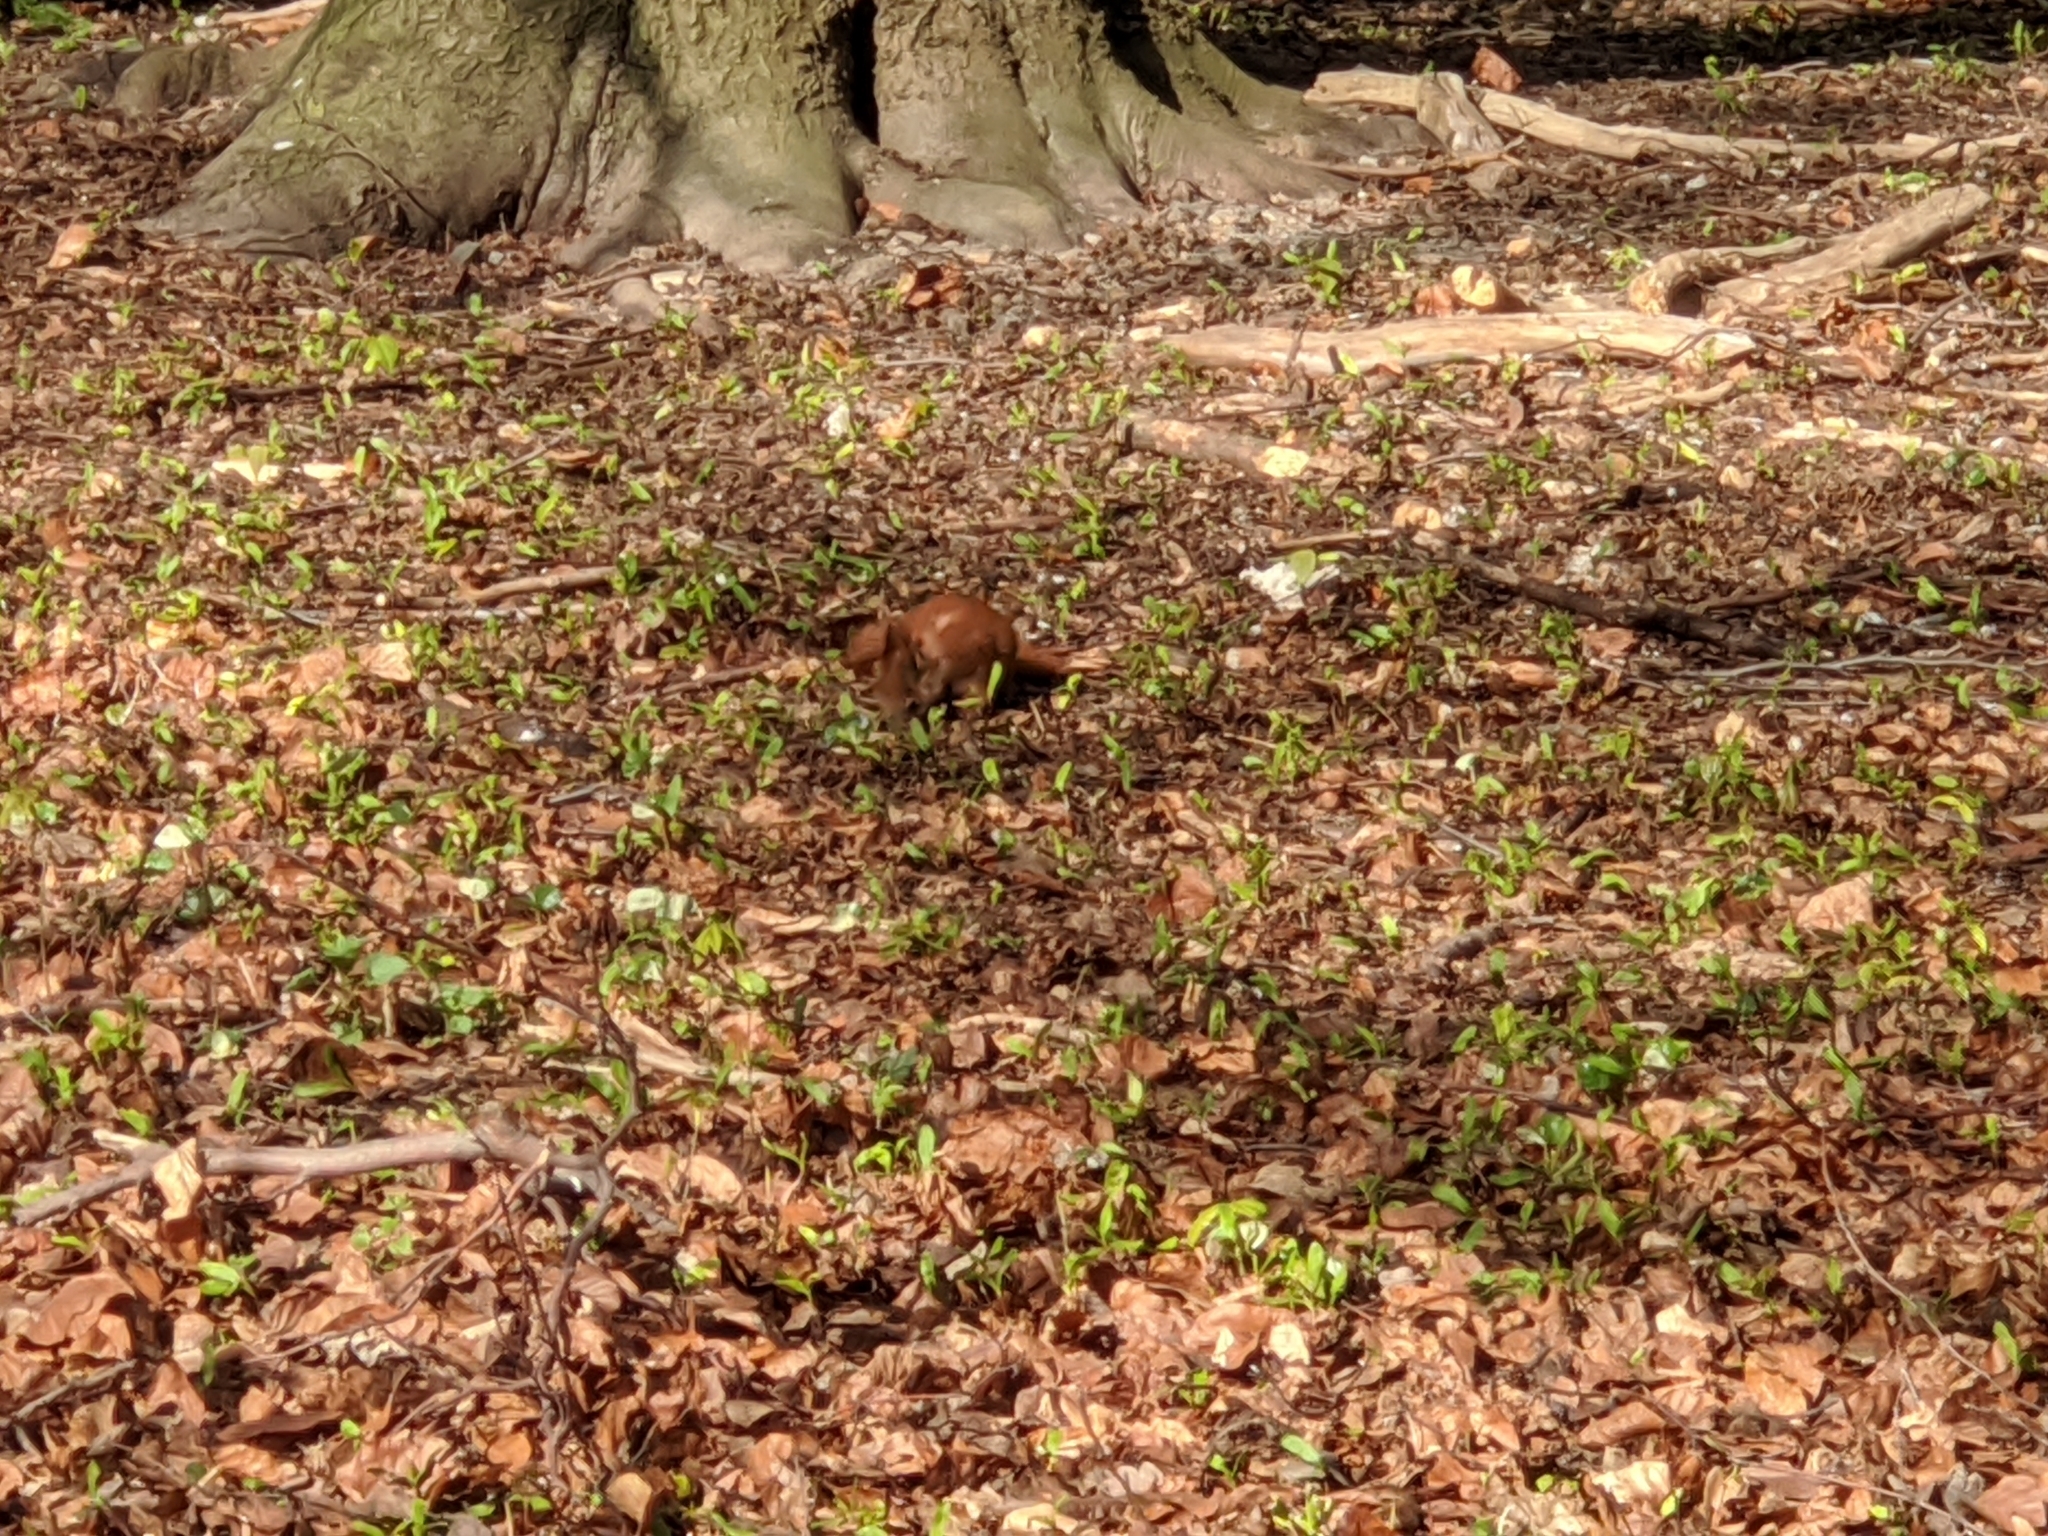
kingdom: Animalia
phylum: Chordata
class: Mammalia
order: Rodentia
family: Sciuridae
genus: Sciurus
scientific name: Sciurus vulgaris
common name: Eurasian red squirrel
